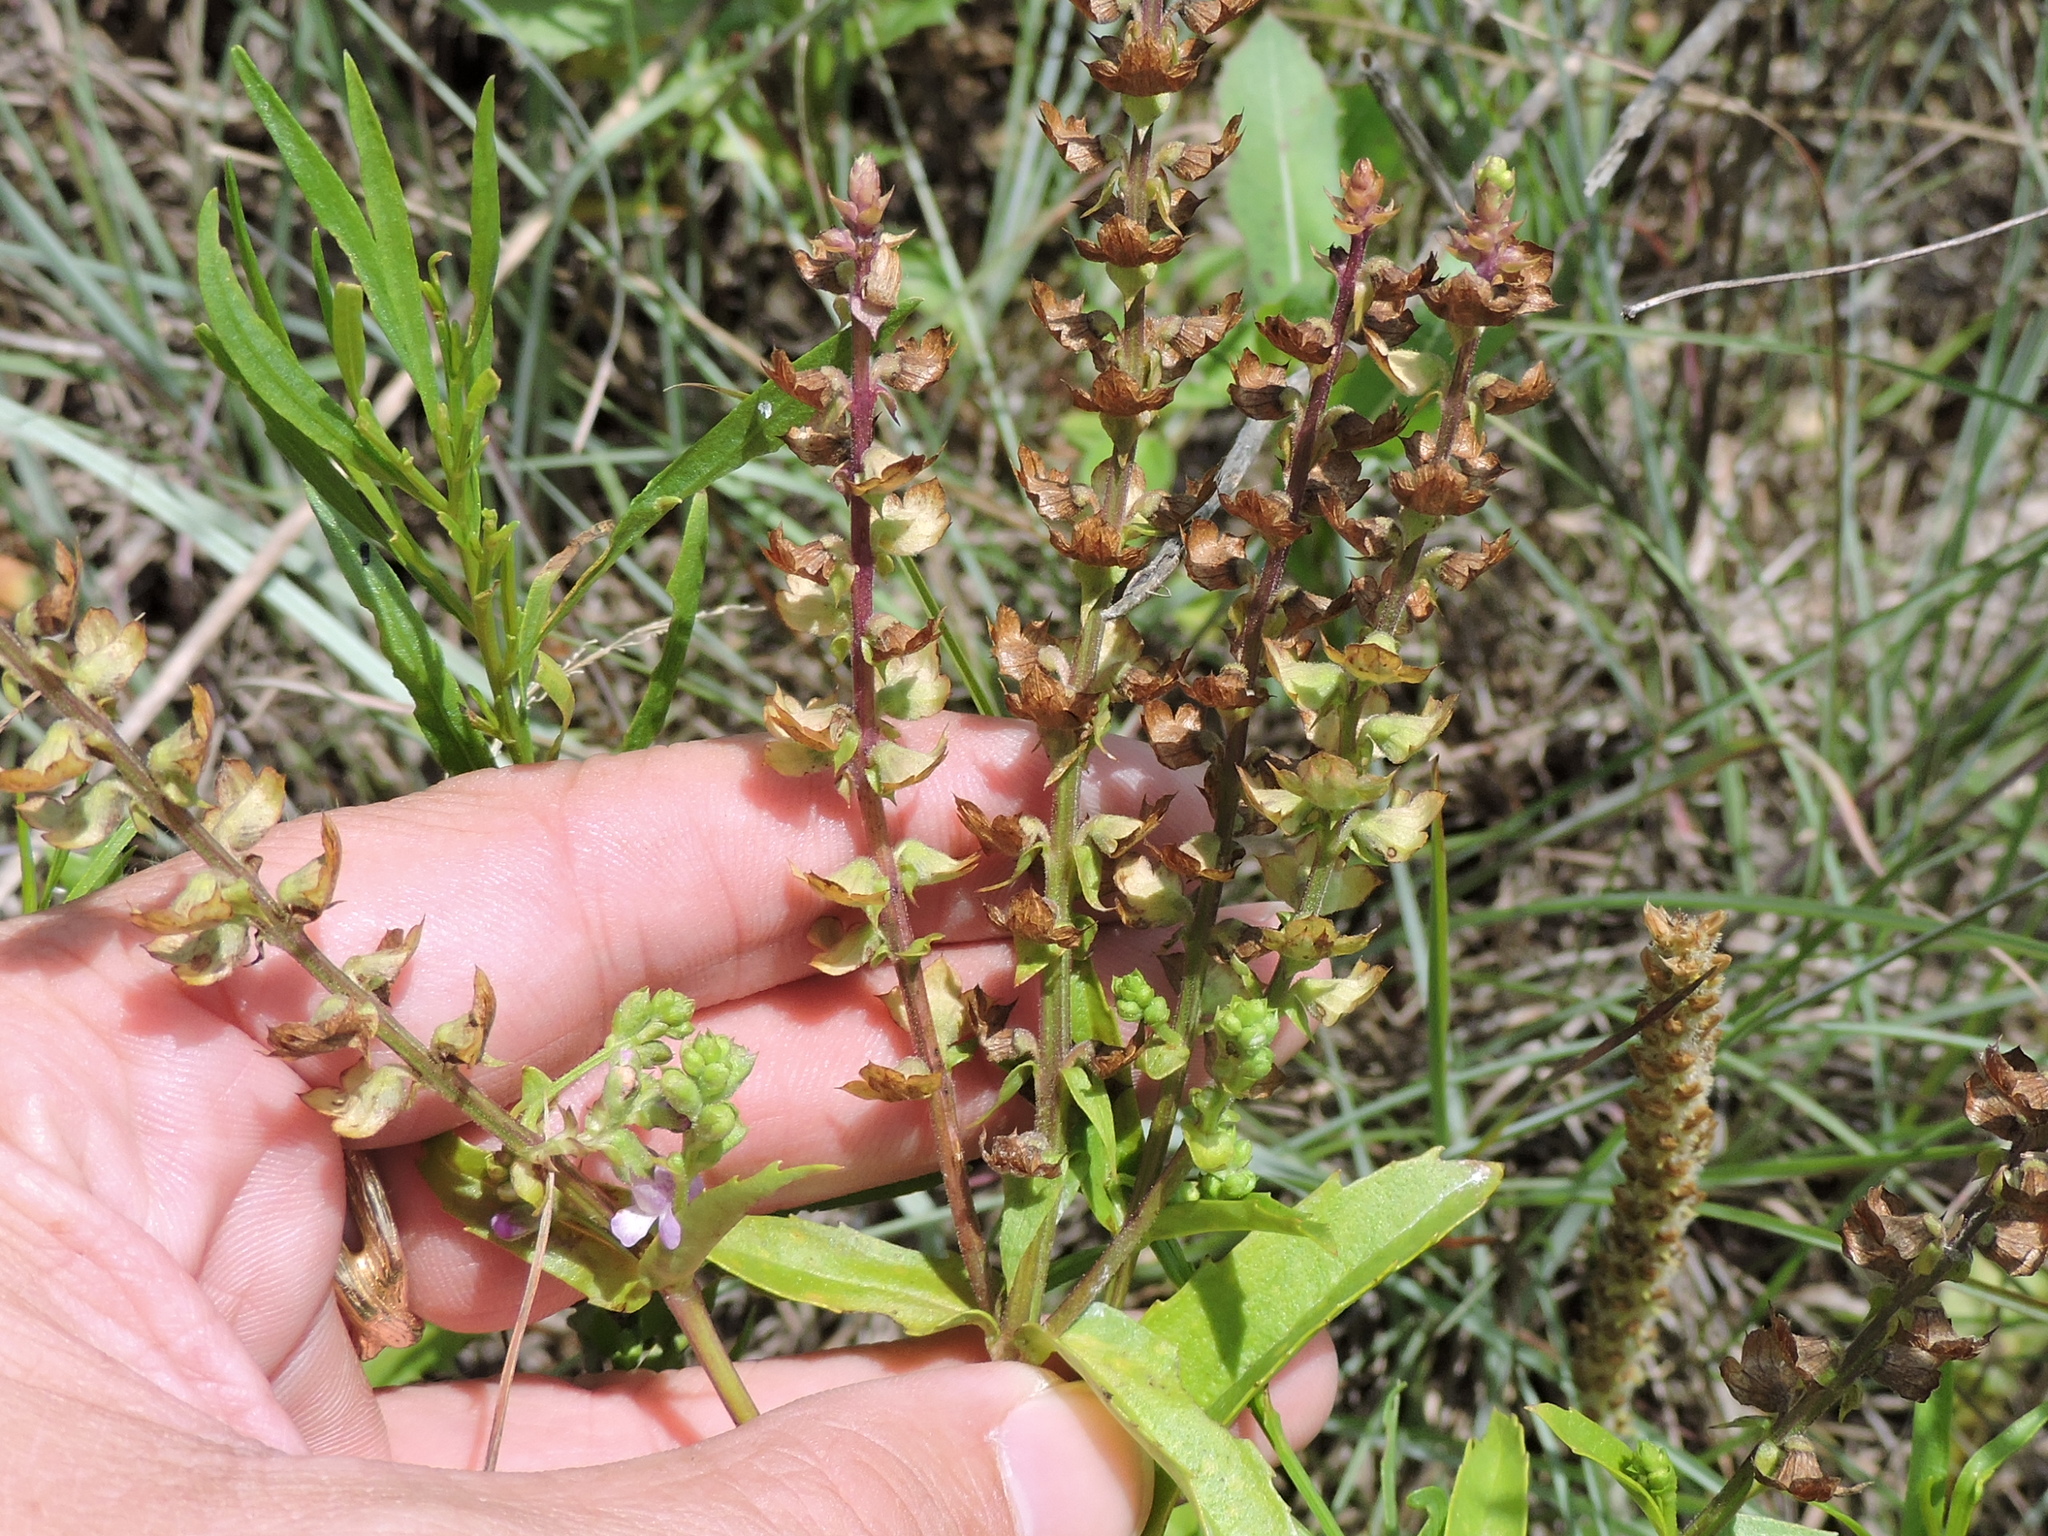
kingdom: Plantae
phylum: Tracheophyta
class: Magnoliopsida
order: Lamiales
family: Lamiaceae
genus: Warnockia
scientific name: Warnockia scutellarioides
